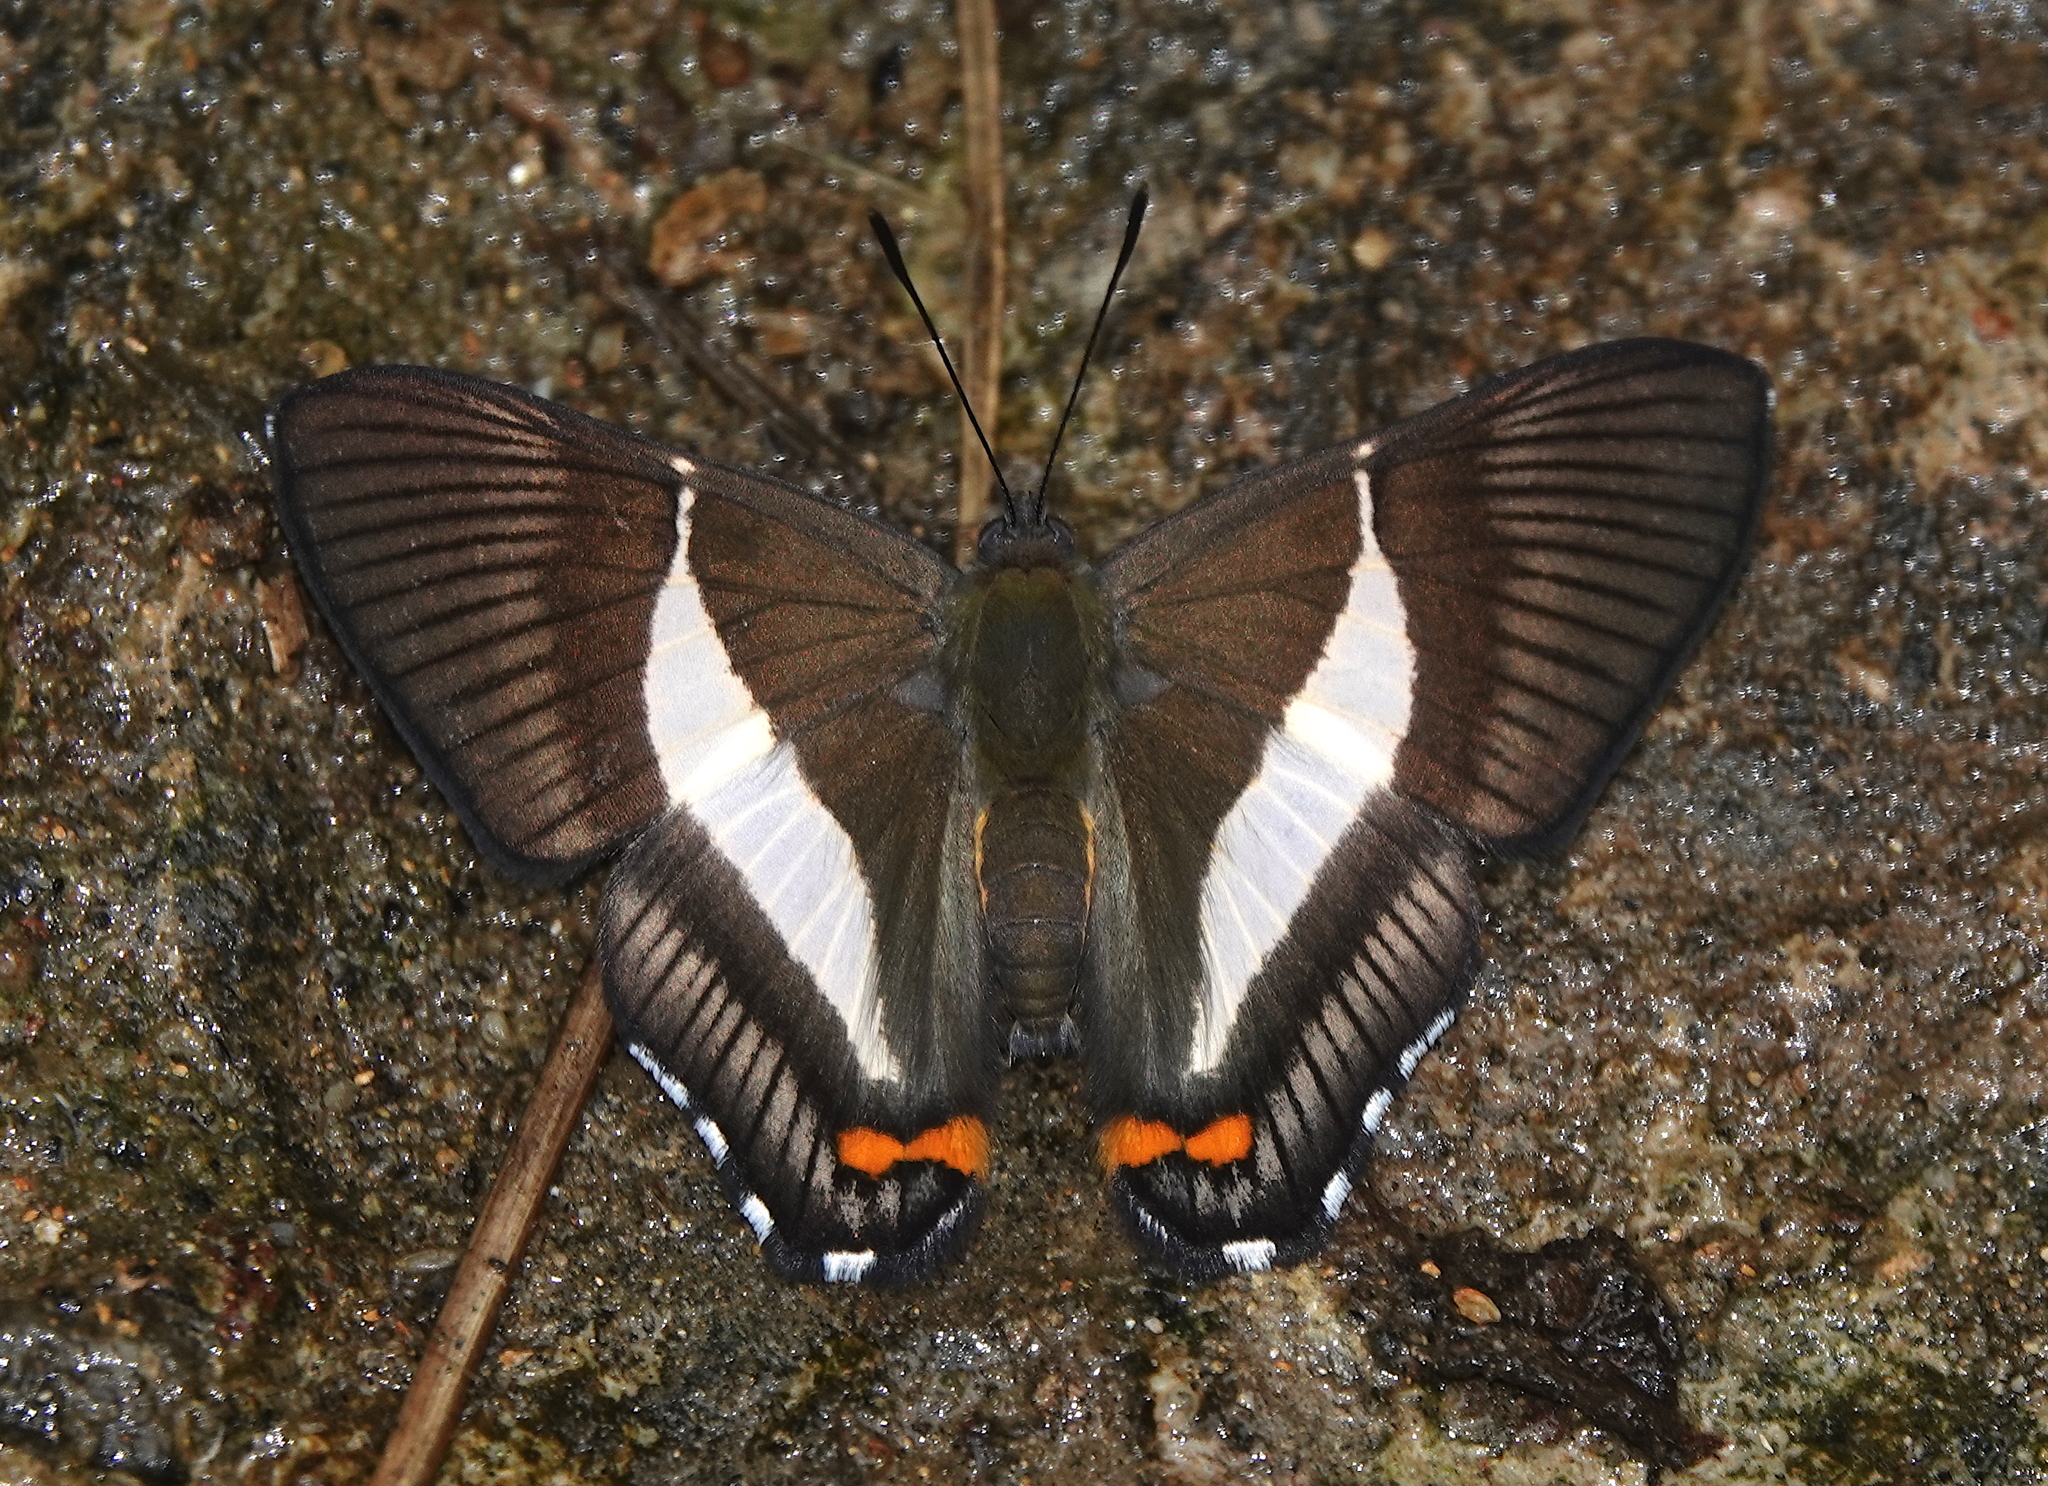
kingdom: Animalia
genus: Siseme
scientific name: Siseme pallas
